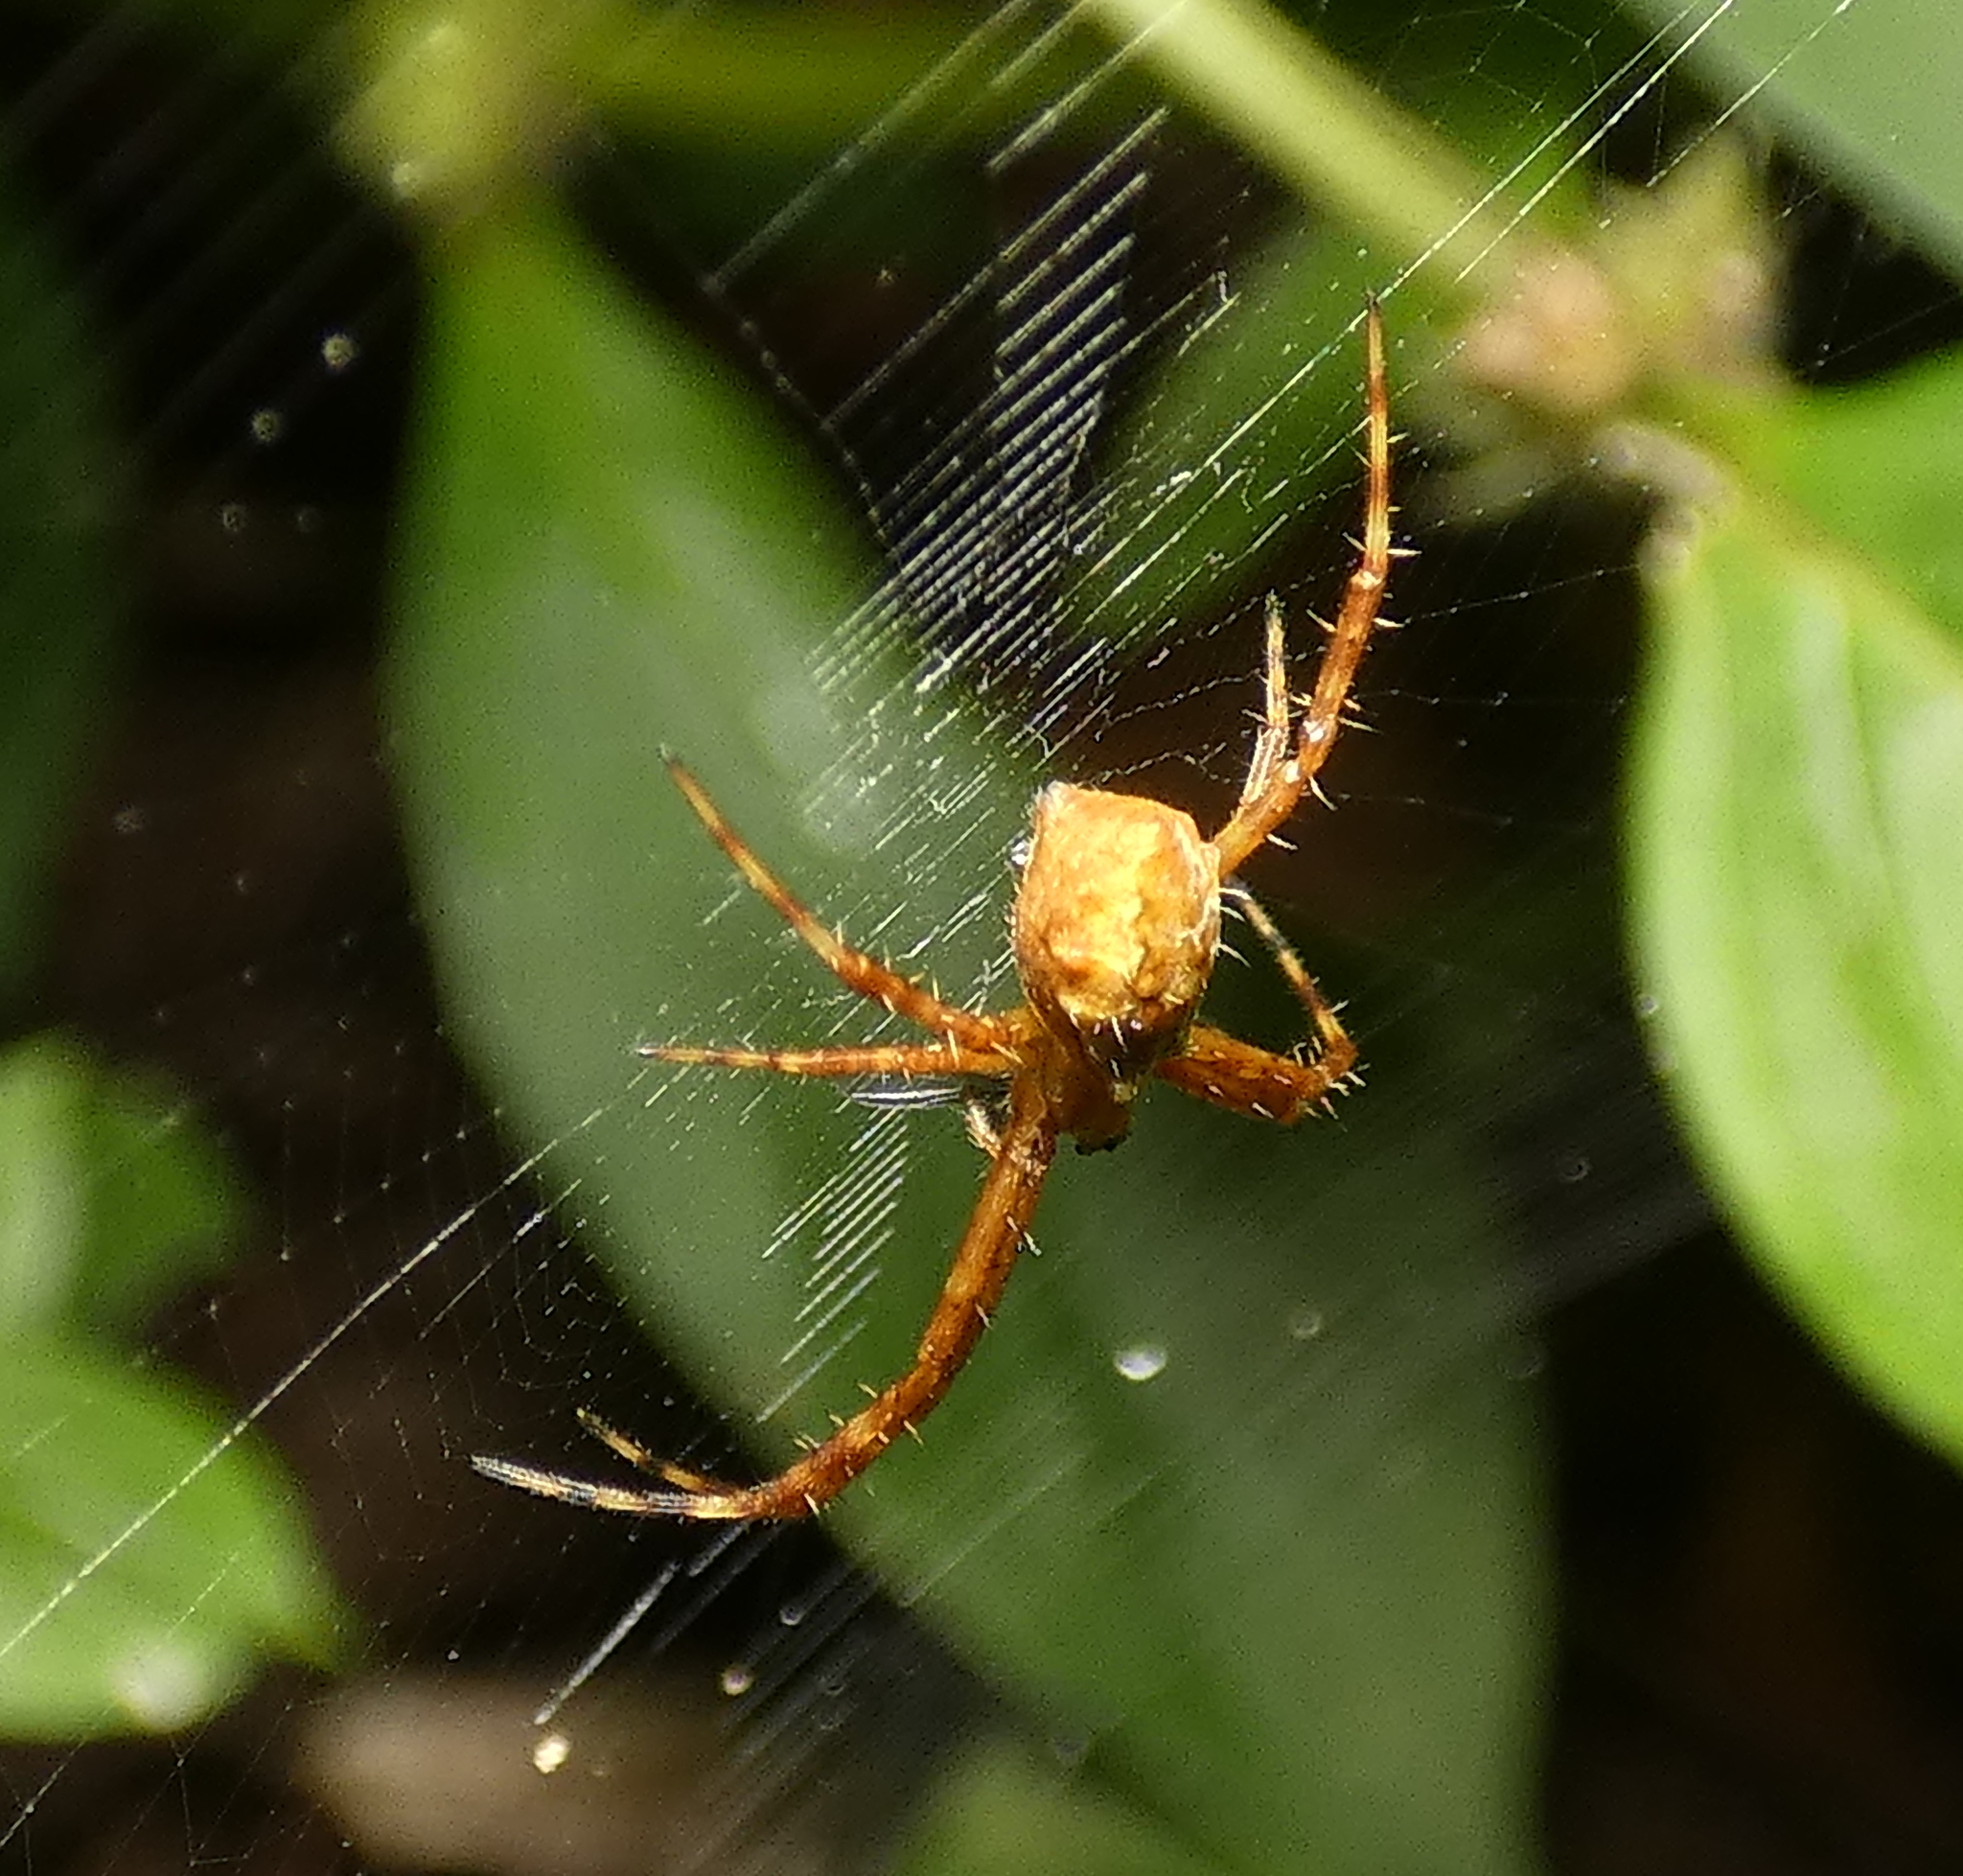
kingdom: Animalia
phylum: Arthropoda
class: Arachnida
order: Araneae
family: Araneidae
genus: Argiope
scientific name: Argiope argentata
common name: Orb weavers
